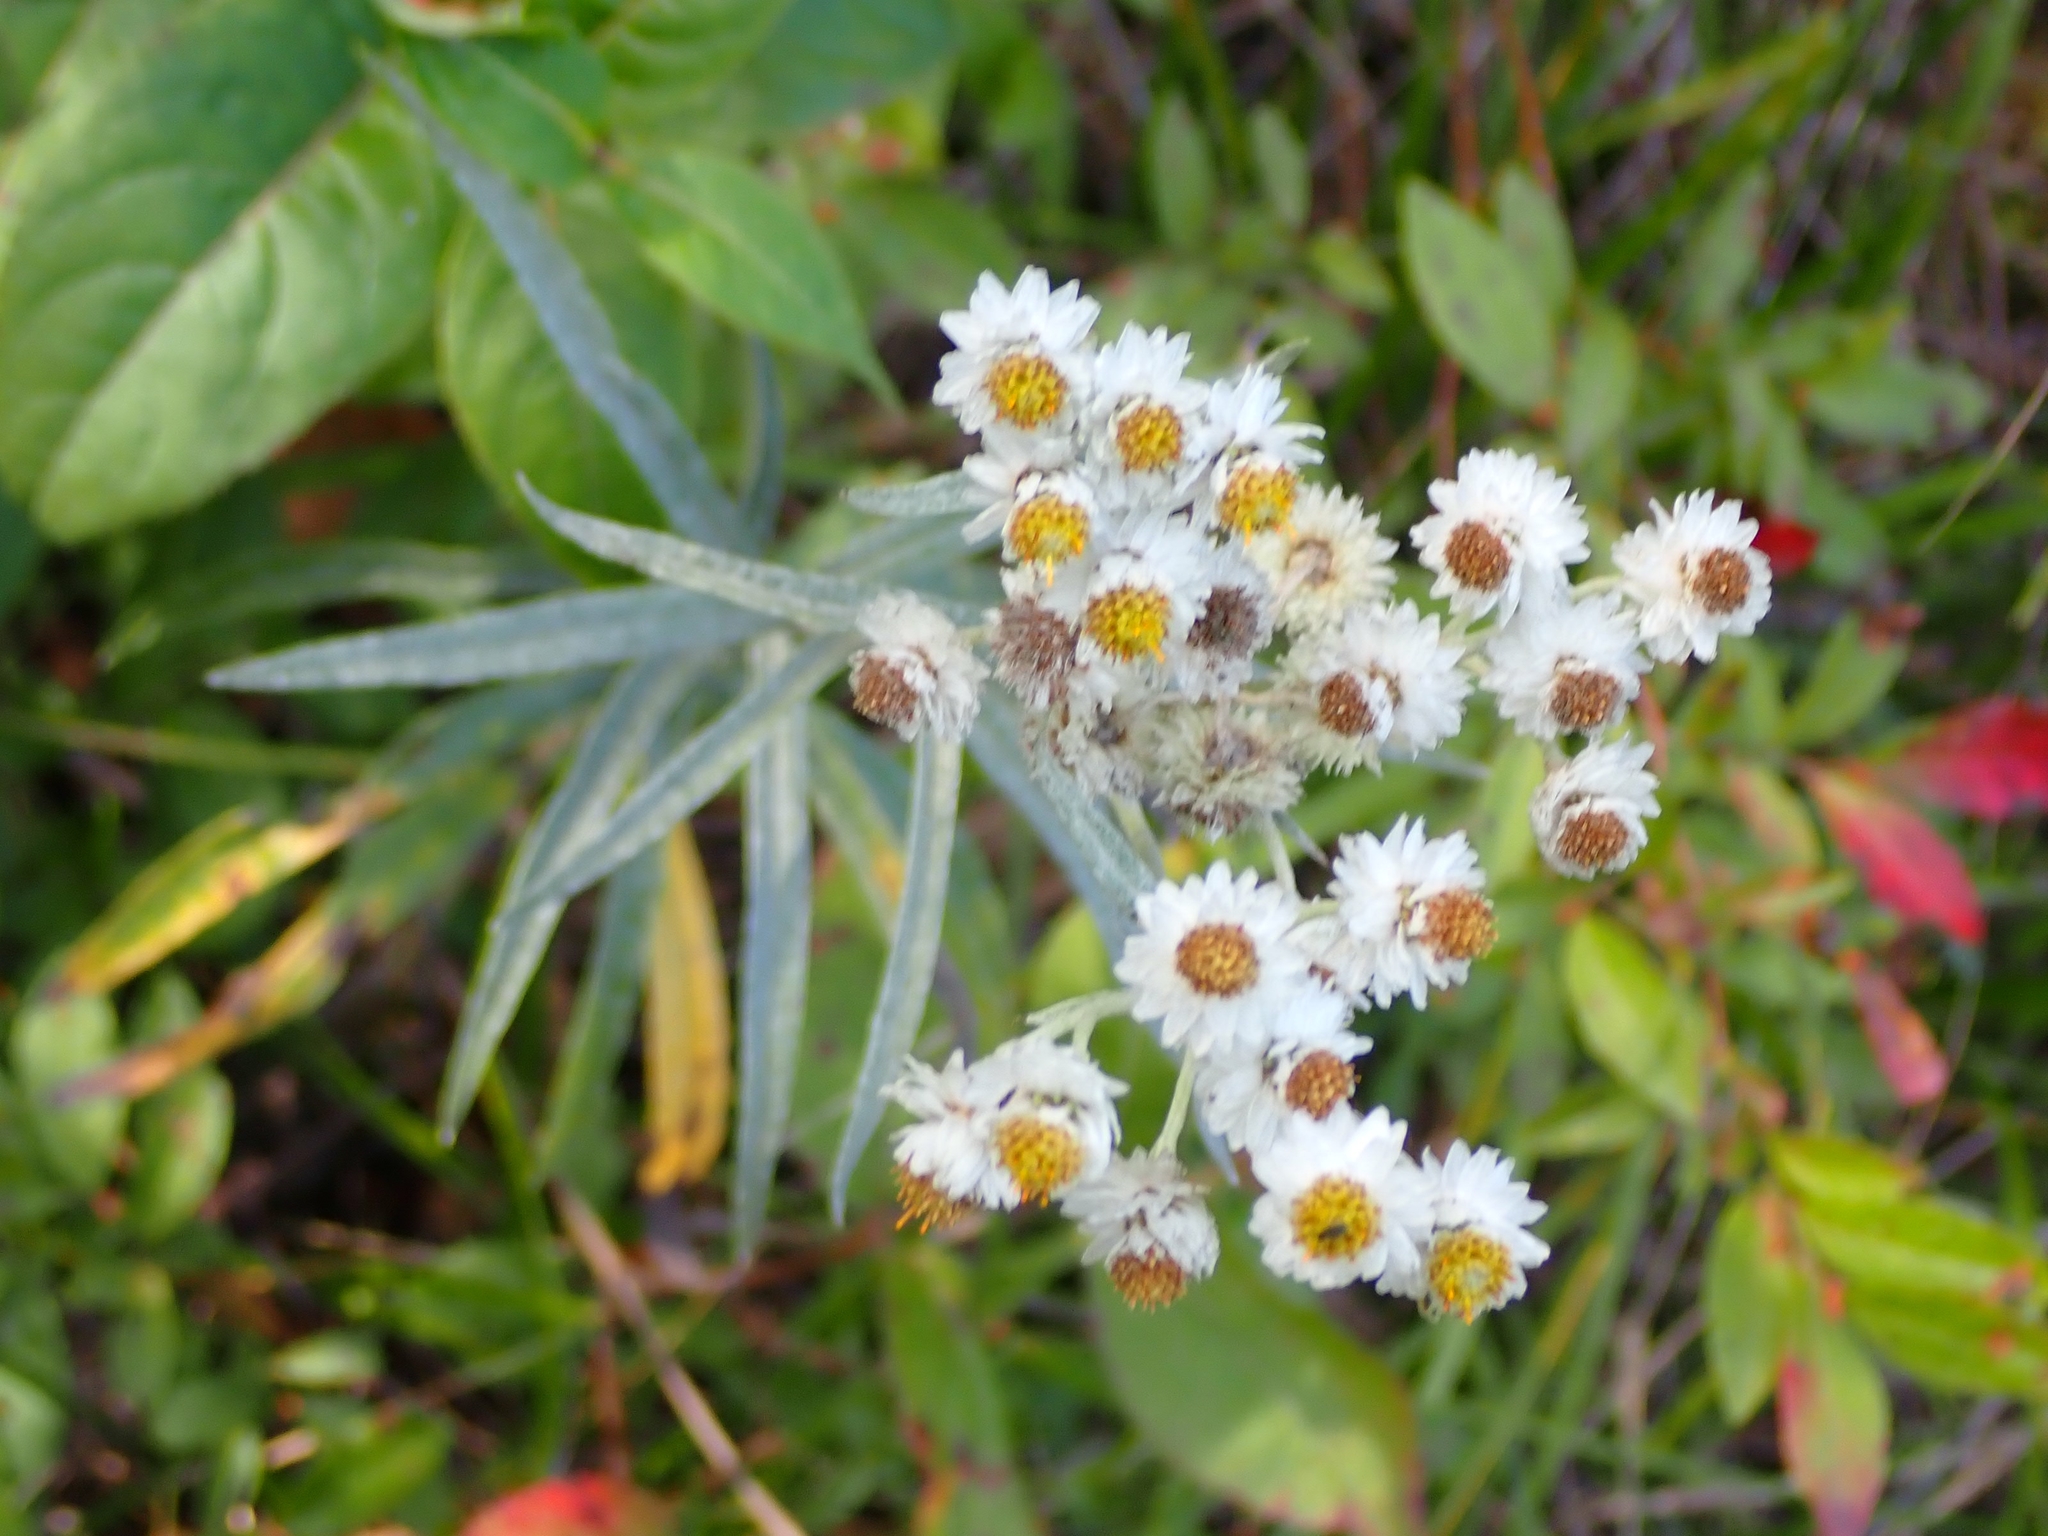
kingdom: Plantae
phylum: Tracheophyta
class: Magnoliopsida
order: Asterales
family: Asteraceae
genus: Anaphalis
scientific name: Anaphalis margaritacea
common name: Pearly everlasting
